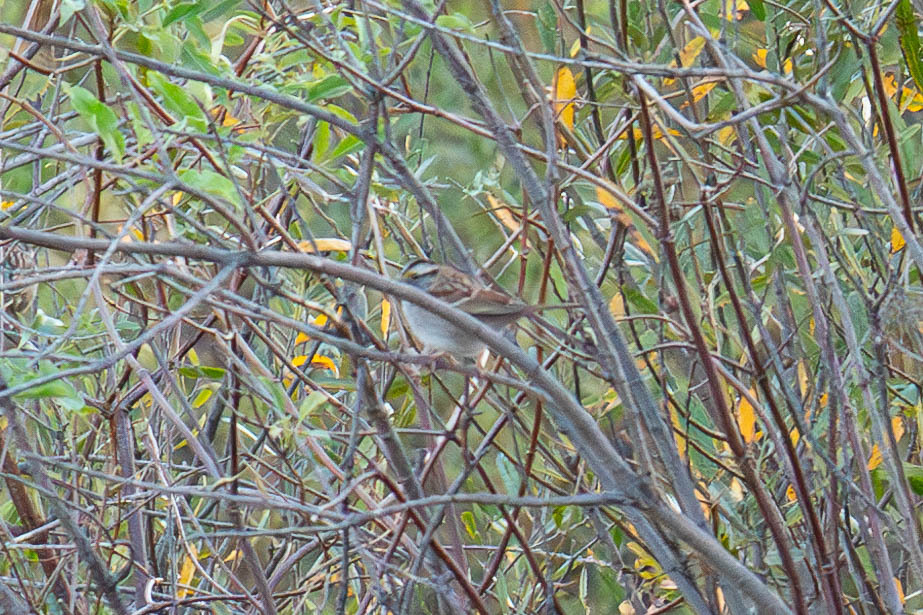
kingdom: Animalia
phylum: Chordata
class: Aves
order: Passeriformes
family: Passerellidae
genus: Zonotrichia
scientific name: Zonotrichia albicollis
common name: White-throated sparrow
